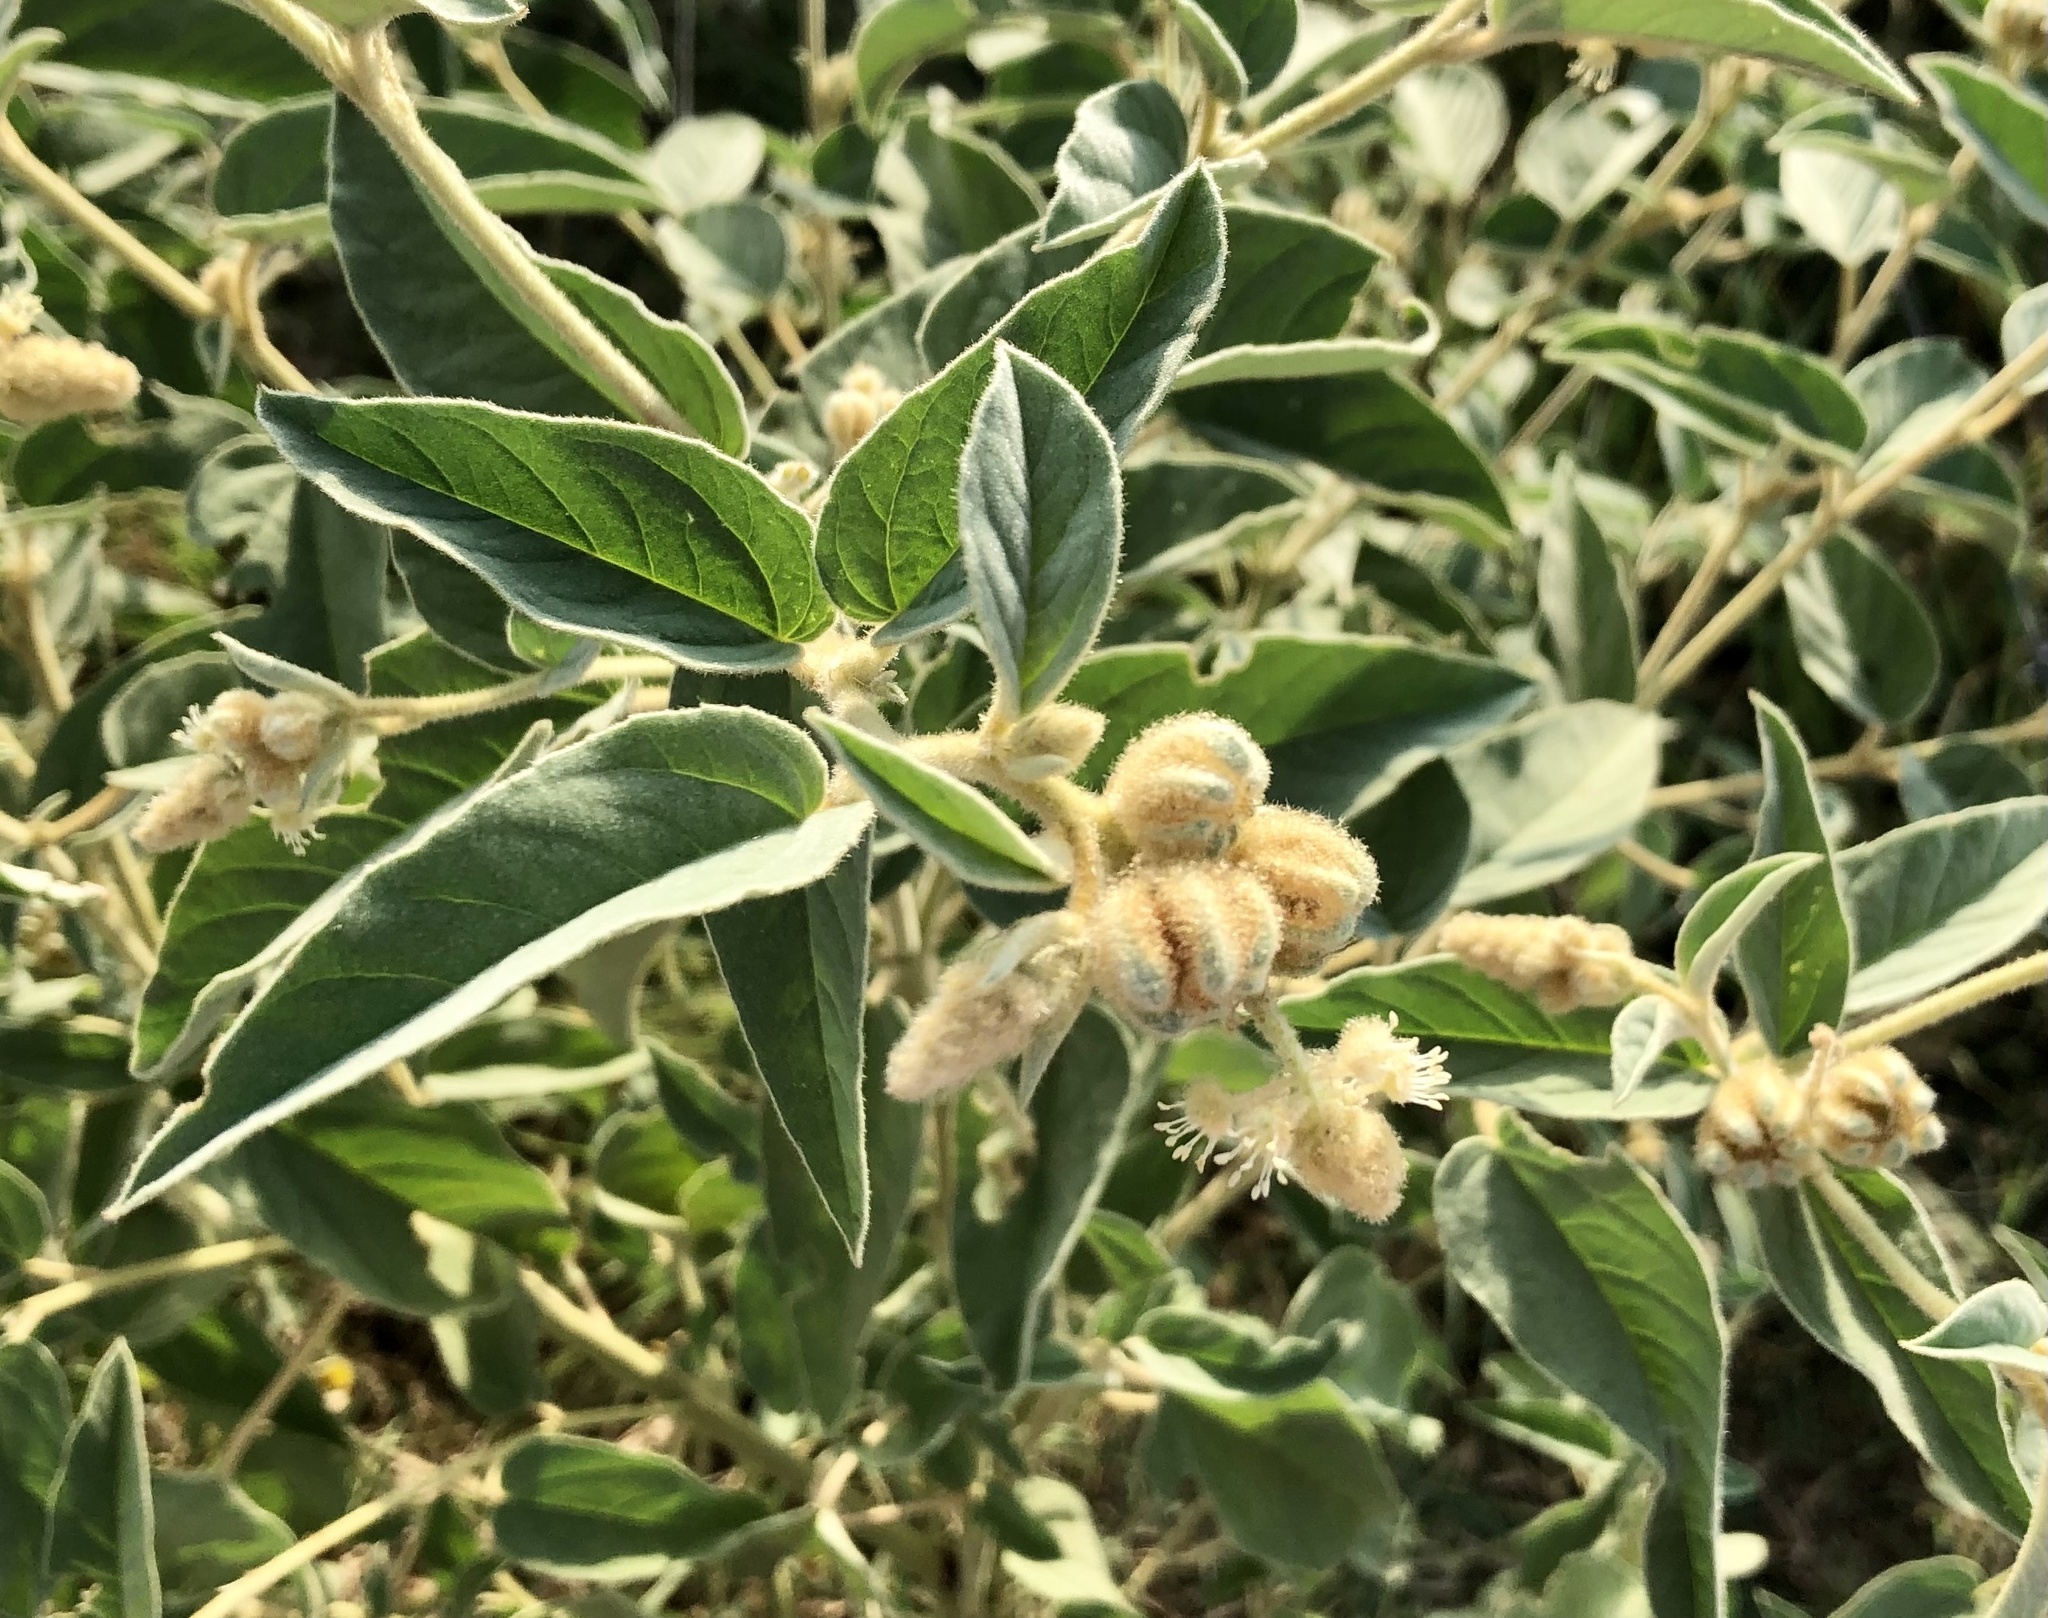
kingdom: Plantae
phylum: Tracheophyta
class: Magnoliopsida
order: Malpighiales
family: Euphorbiaceae
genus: Croton
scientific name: Croton lindheimeri
